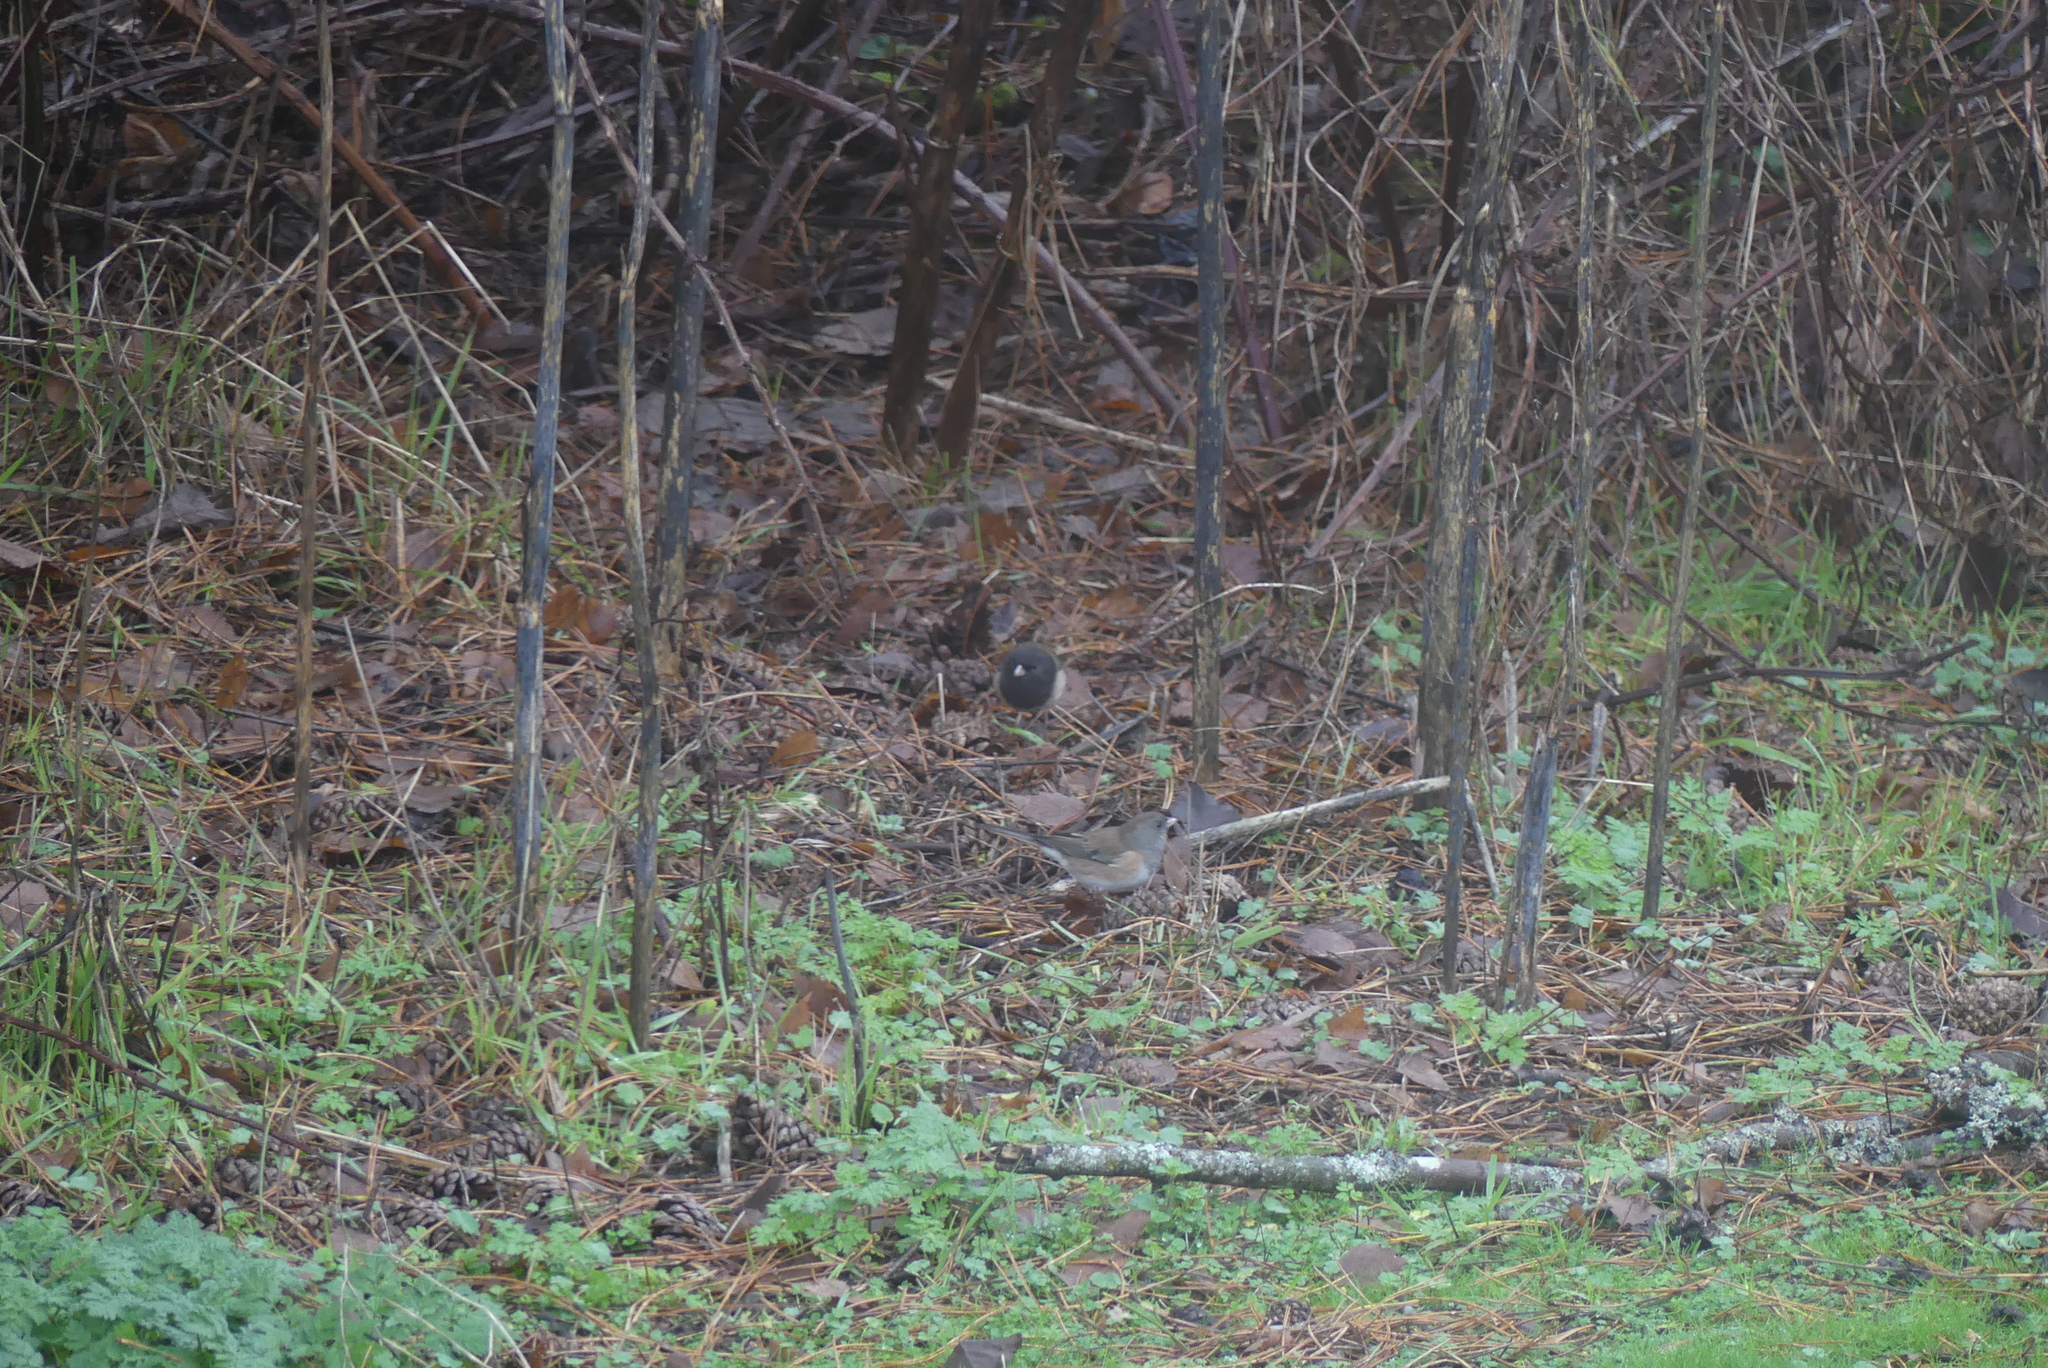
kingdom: Animalia
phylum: Chordata
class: Aves
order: Passeriformes
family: Passerellidae
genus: Junco
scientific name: Junco hyemalis
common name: Dark-eyed junco
